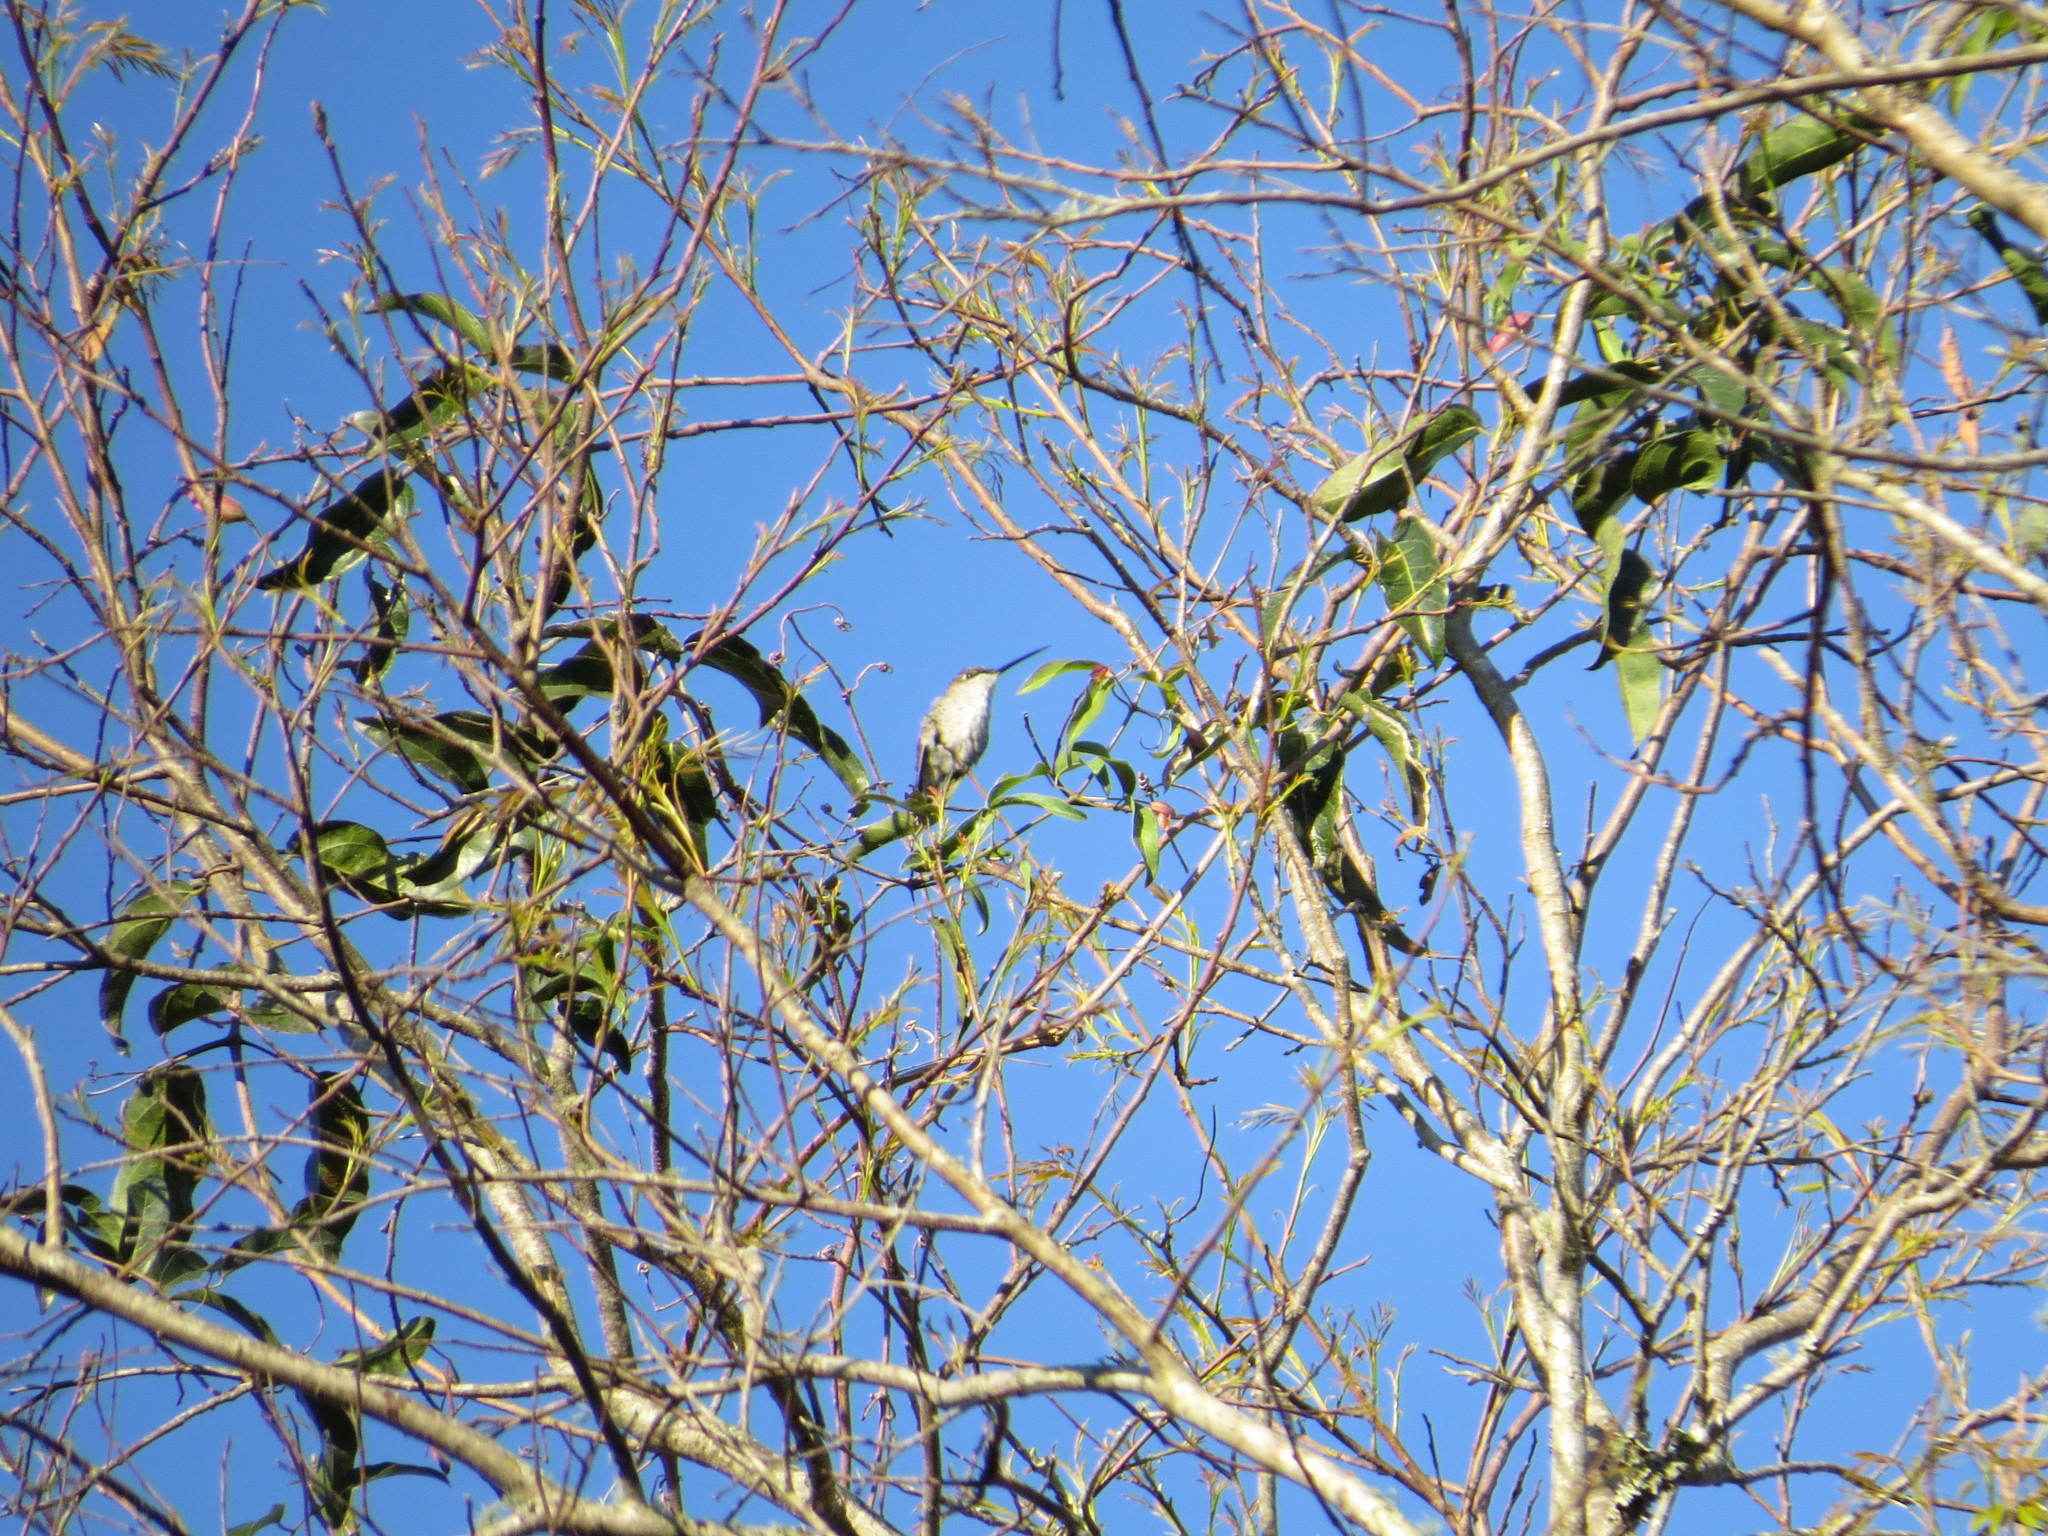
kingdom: Animalia
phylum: Chordata
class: Aves
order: Apodiformes
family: Trochilidae
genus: Heliomaster
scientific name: Heliomaster furcifer
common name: Blue-tufted starthroat
